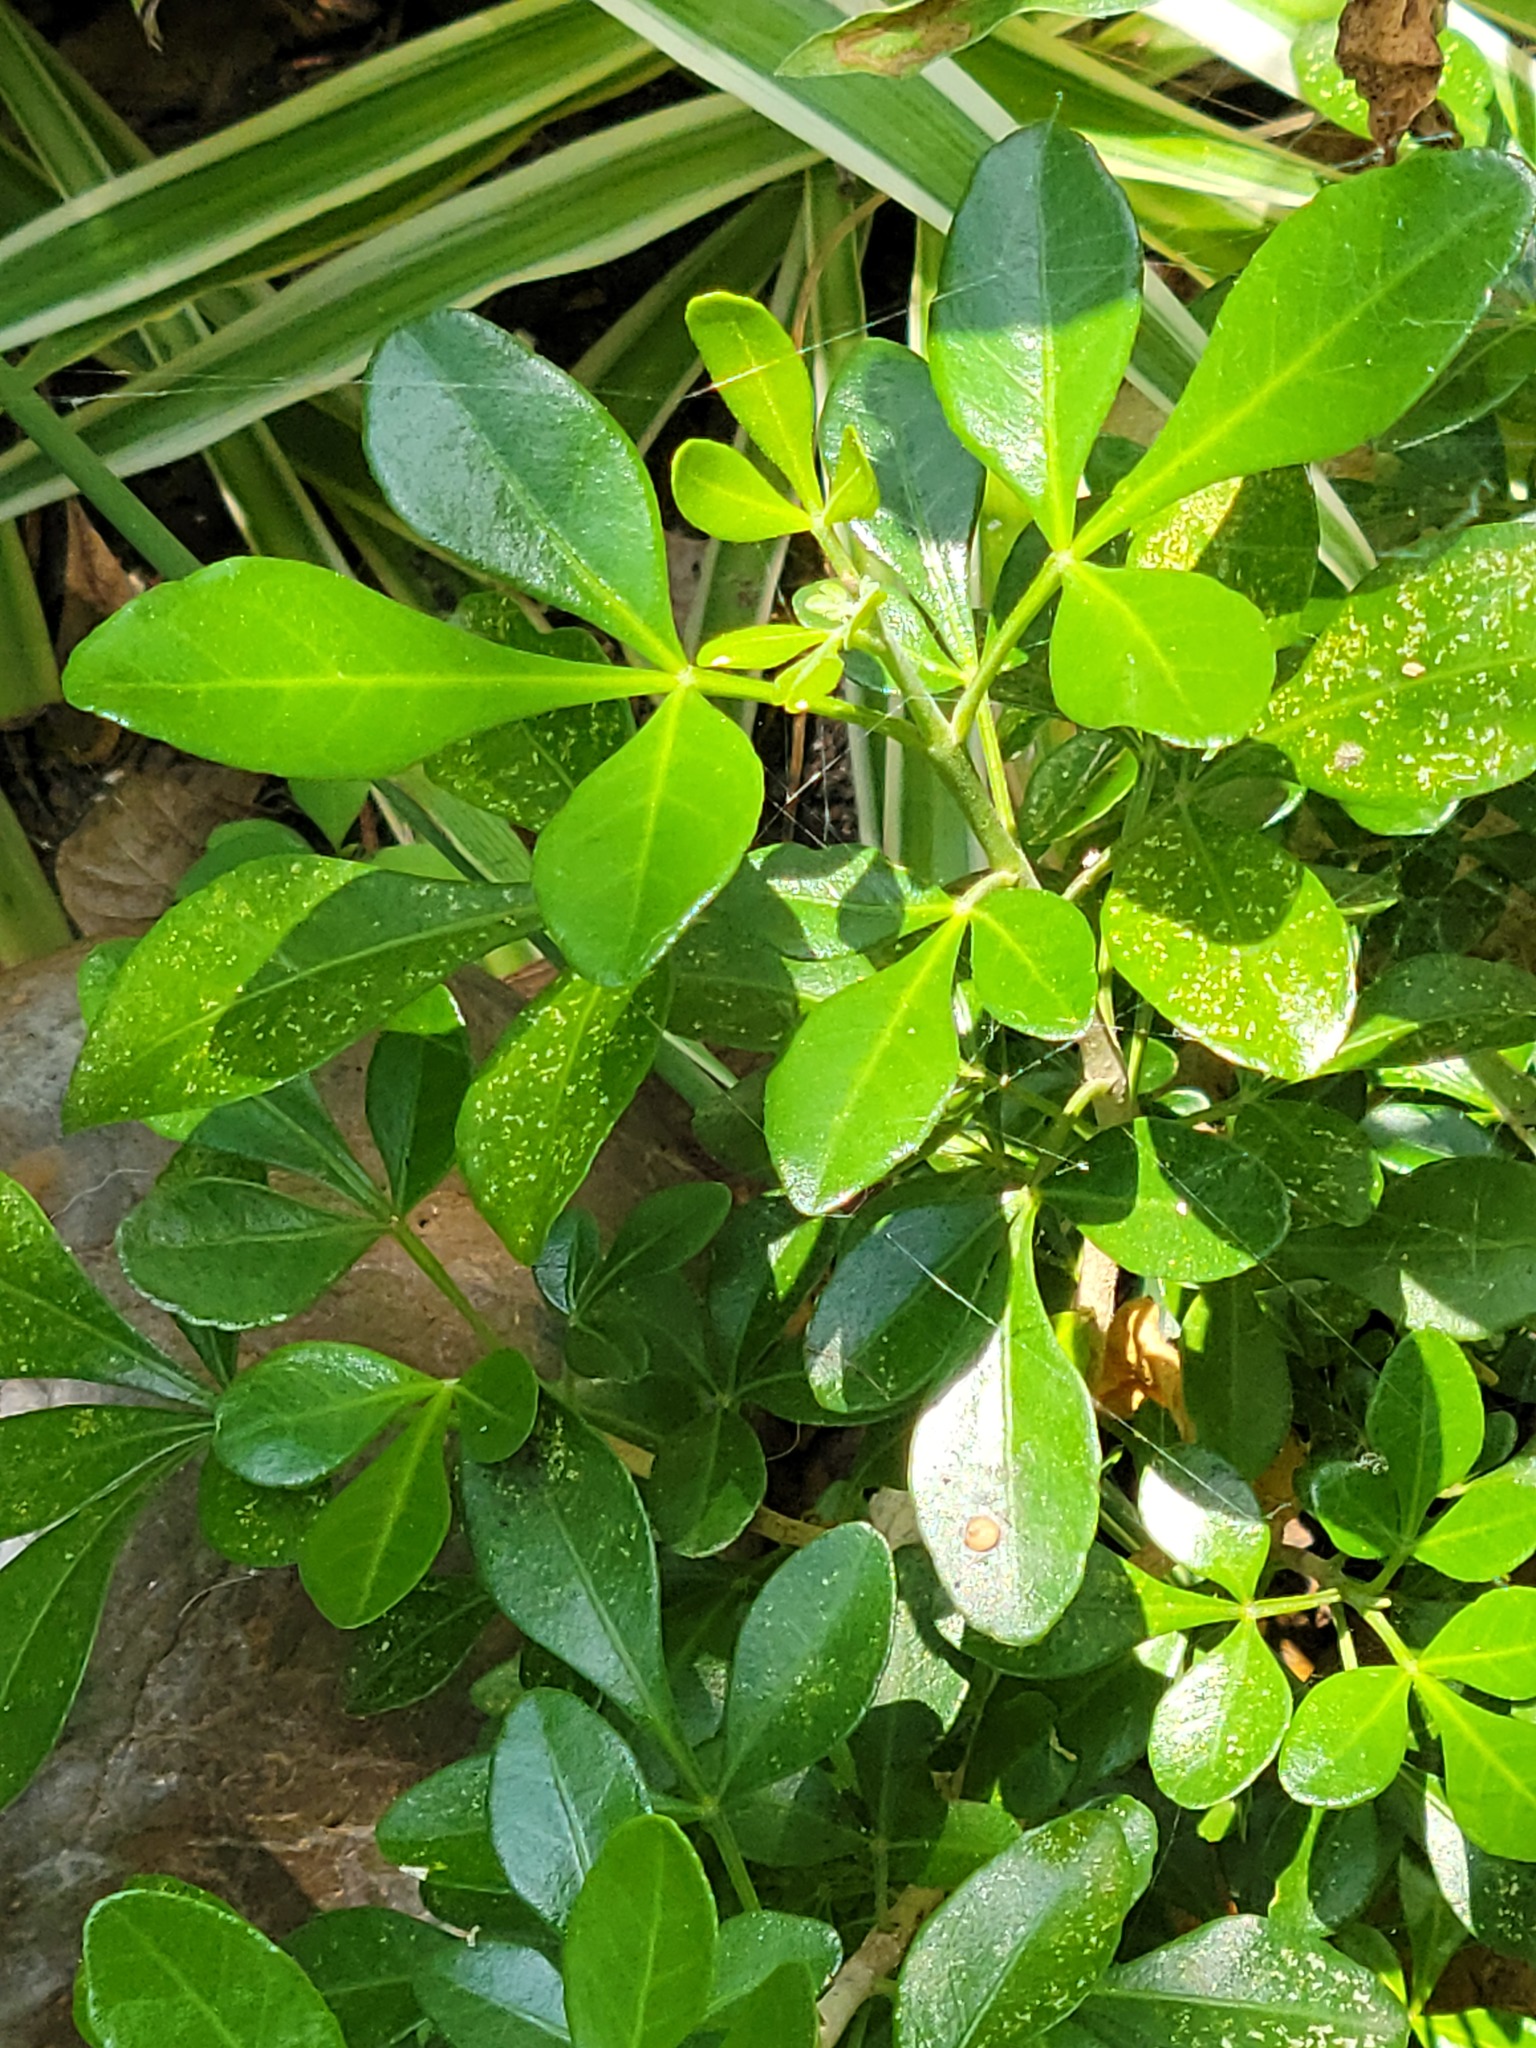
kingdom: Plantae
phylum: Tracheophyta
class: Magnoliopsida
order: Sapindales
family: Rutaceae
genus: Helietta
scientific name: Helietta parvifolia
